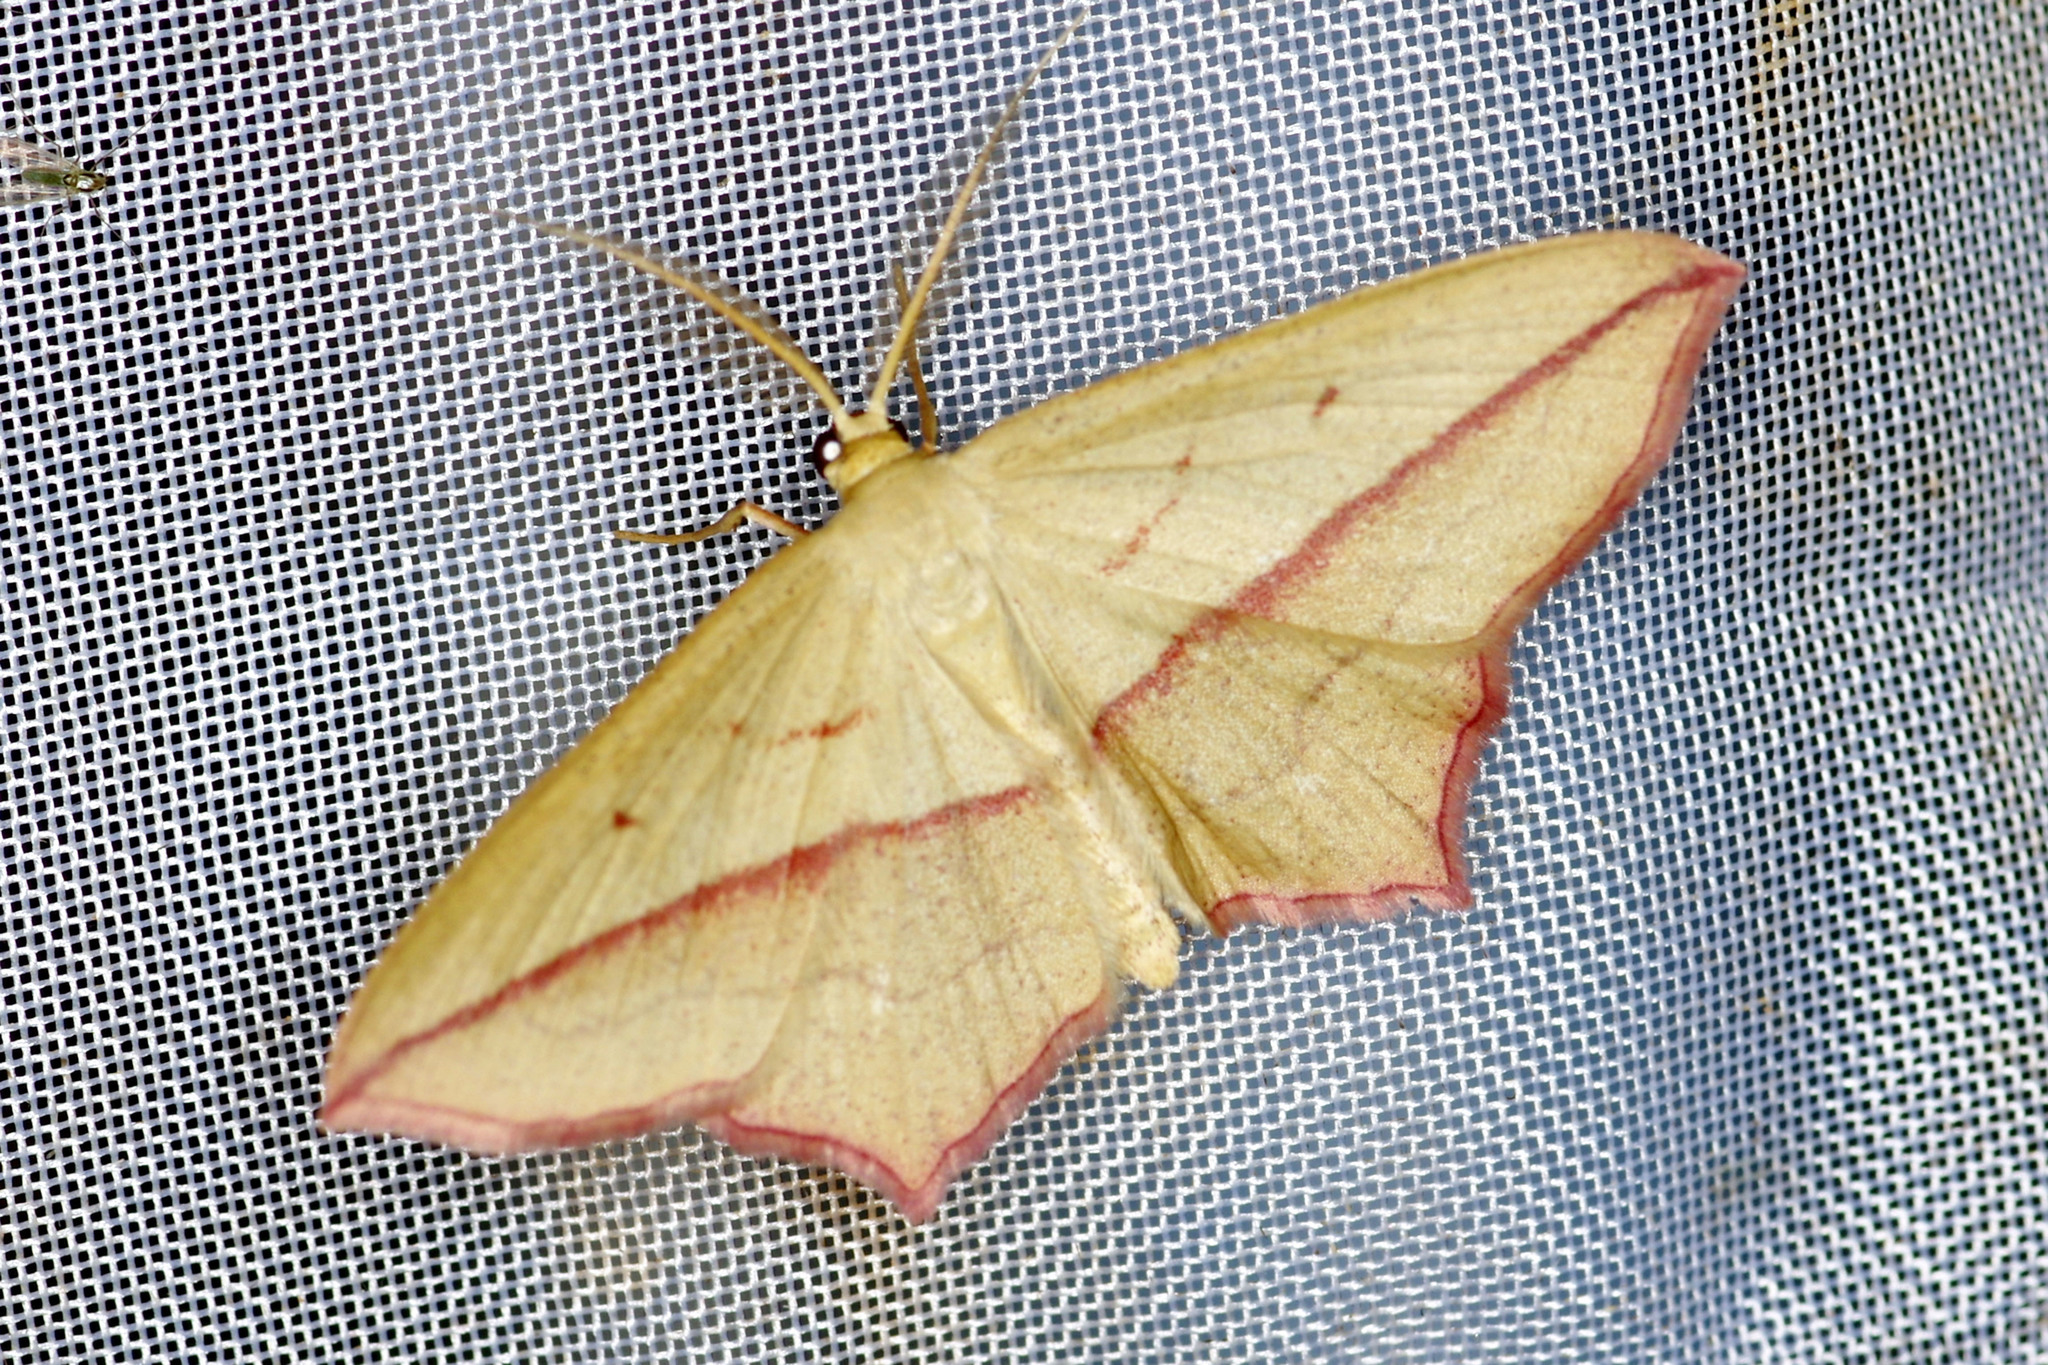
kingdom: Animalia
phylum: Arthropoda
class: Insecta
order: Lepidoptera
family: Geometridae
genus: Timandra
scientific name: Timandra comae
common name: Blood-vein
